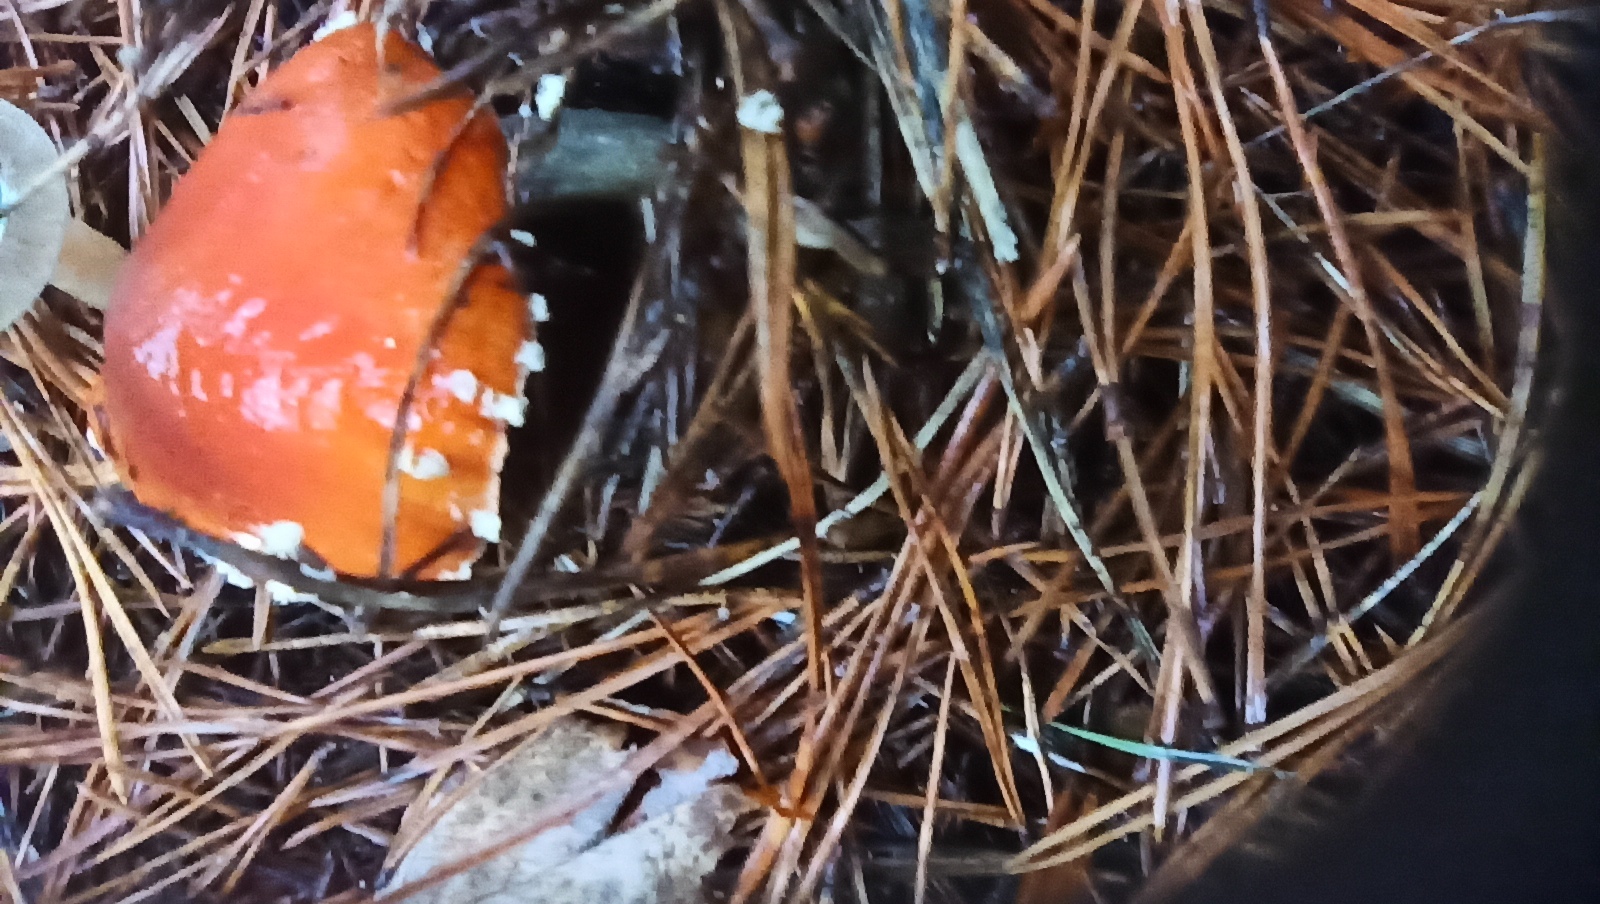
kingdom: Fungi
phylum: Basidiomycota
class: Agaricomycetes
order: Agaricales
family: Amanitaceae
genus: Amanita
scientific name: Amanita muscaria
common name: Fly agaric
